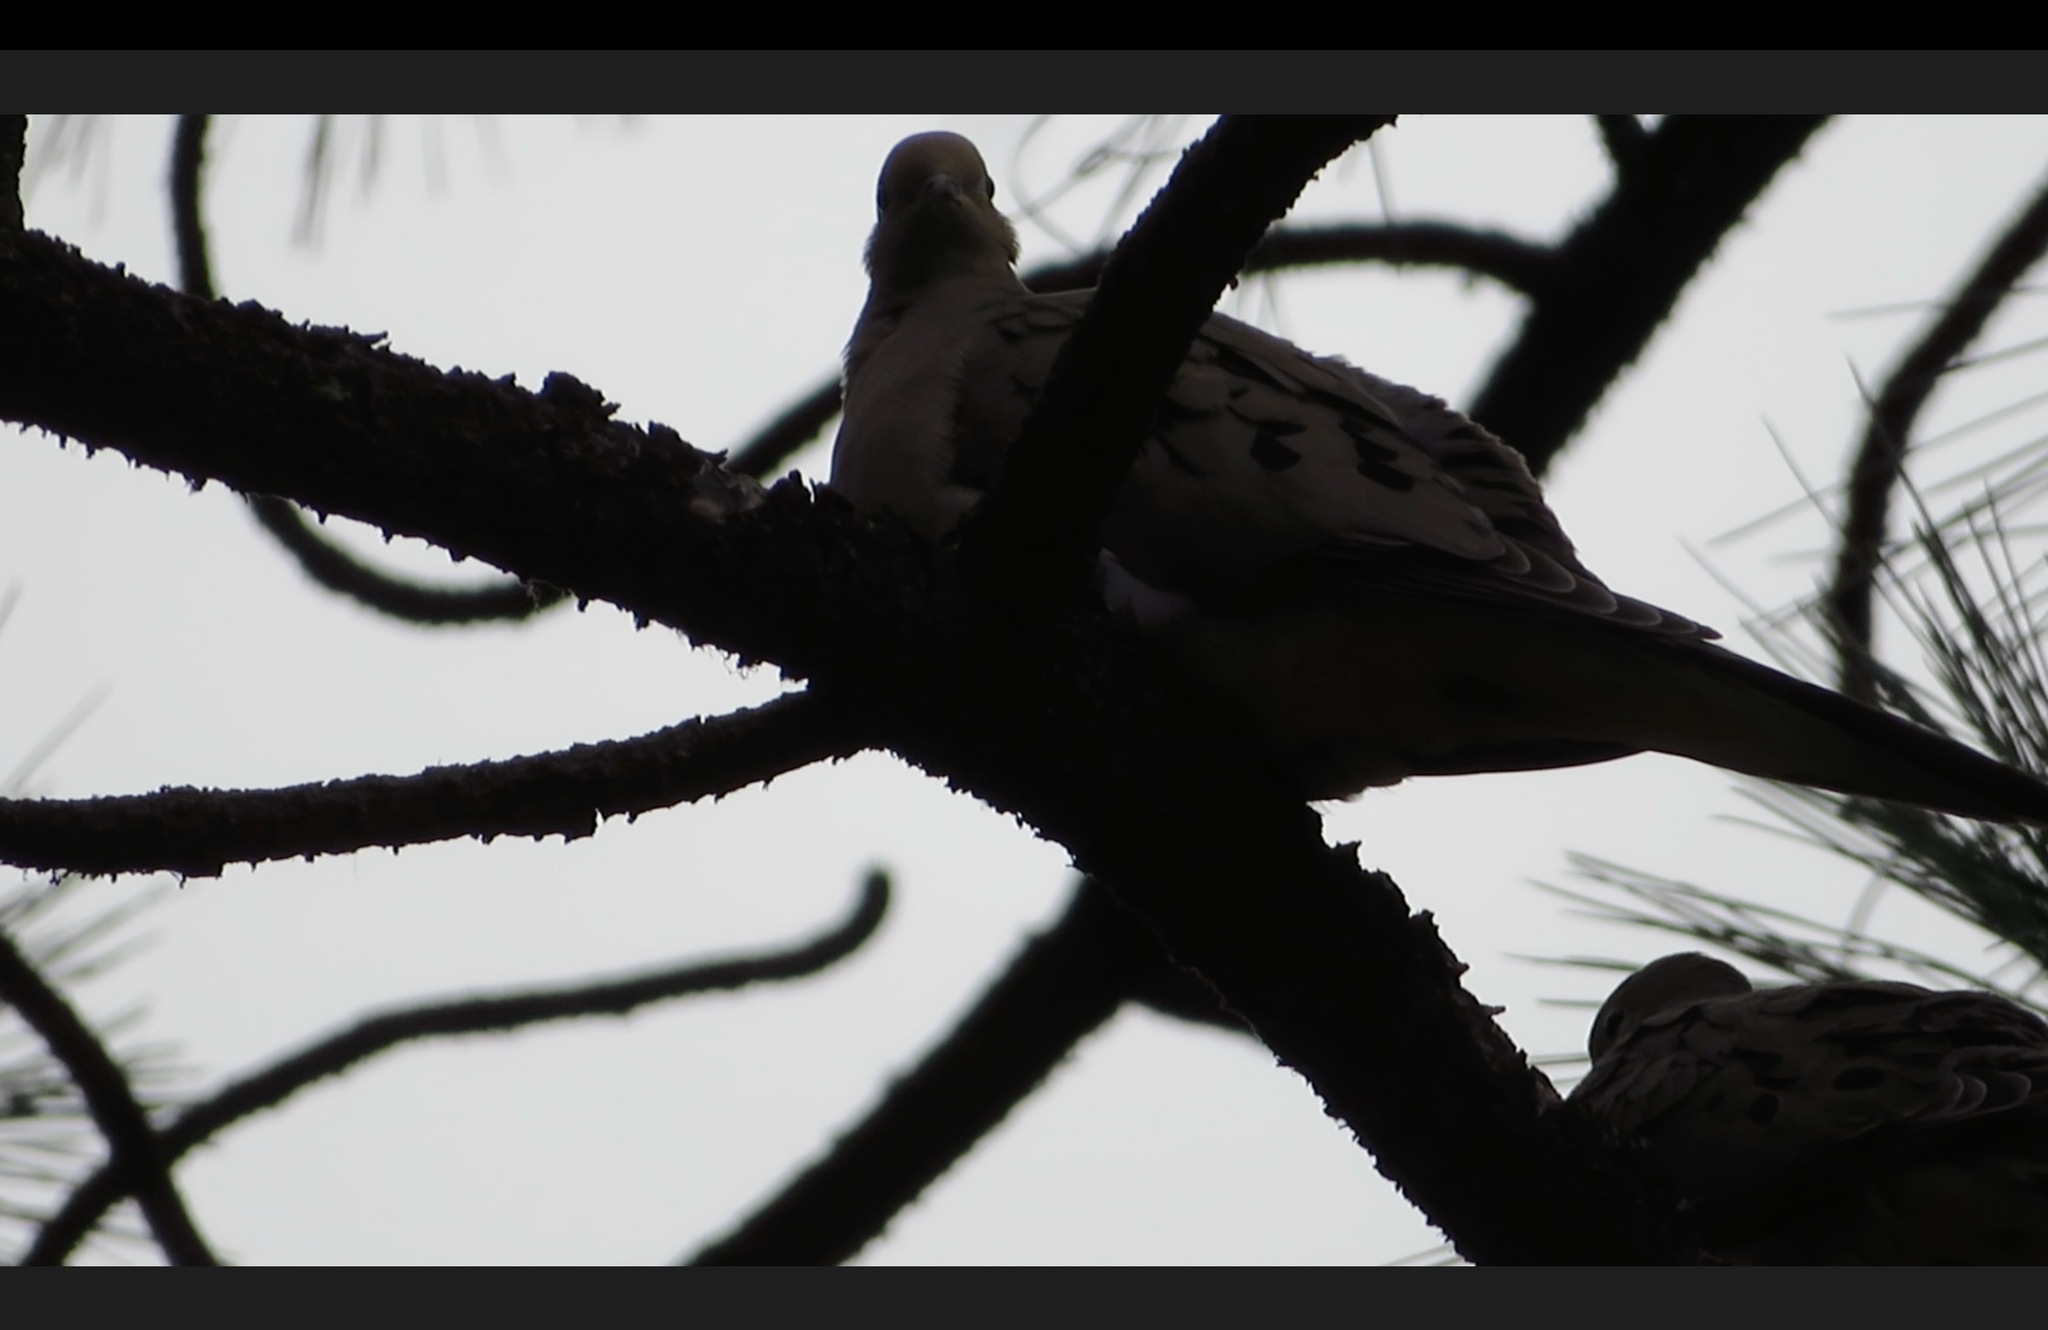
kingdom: Animalia
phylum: Chordata
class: Aves
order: Columbiformes
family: Columbidae
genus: Zenaida
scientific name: Zenaida macroura
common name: Mourning dove
